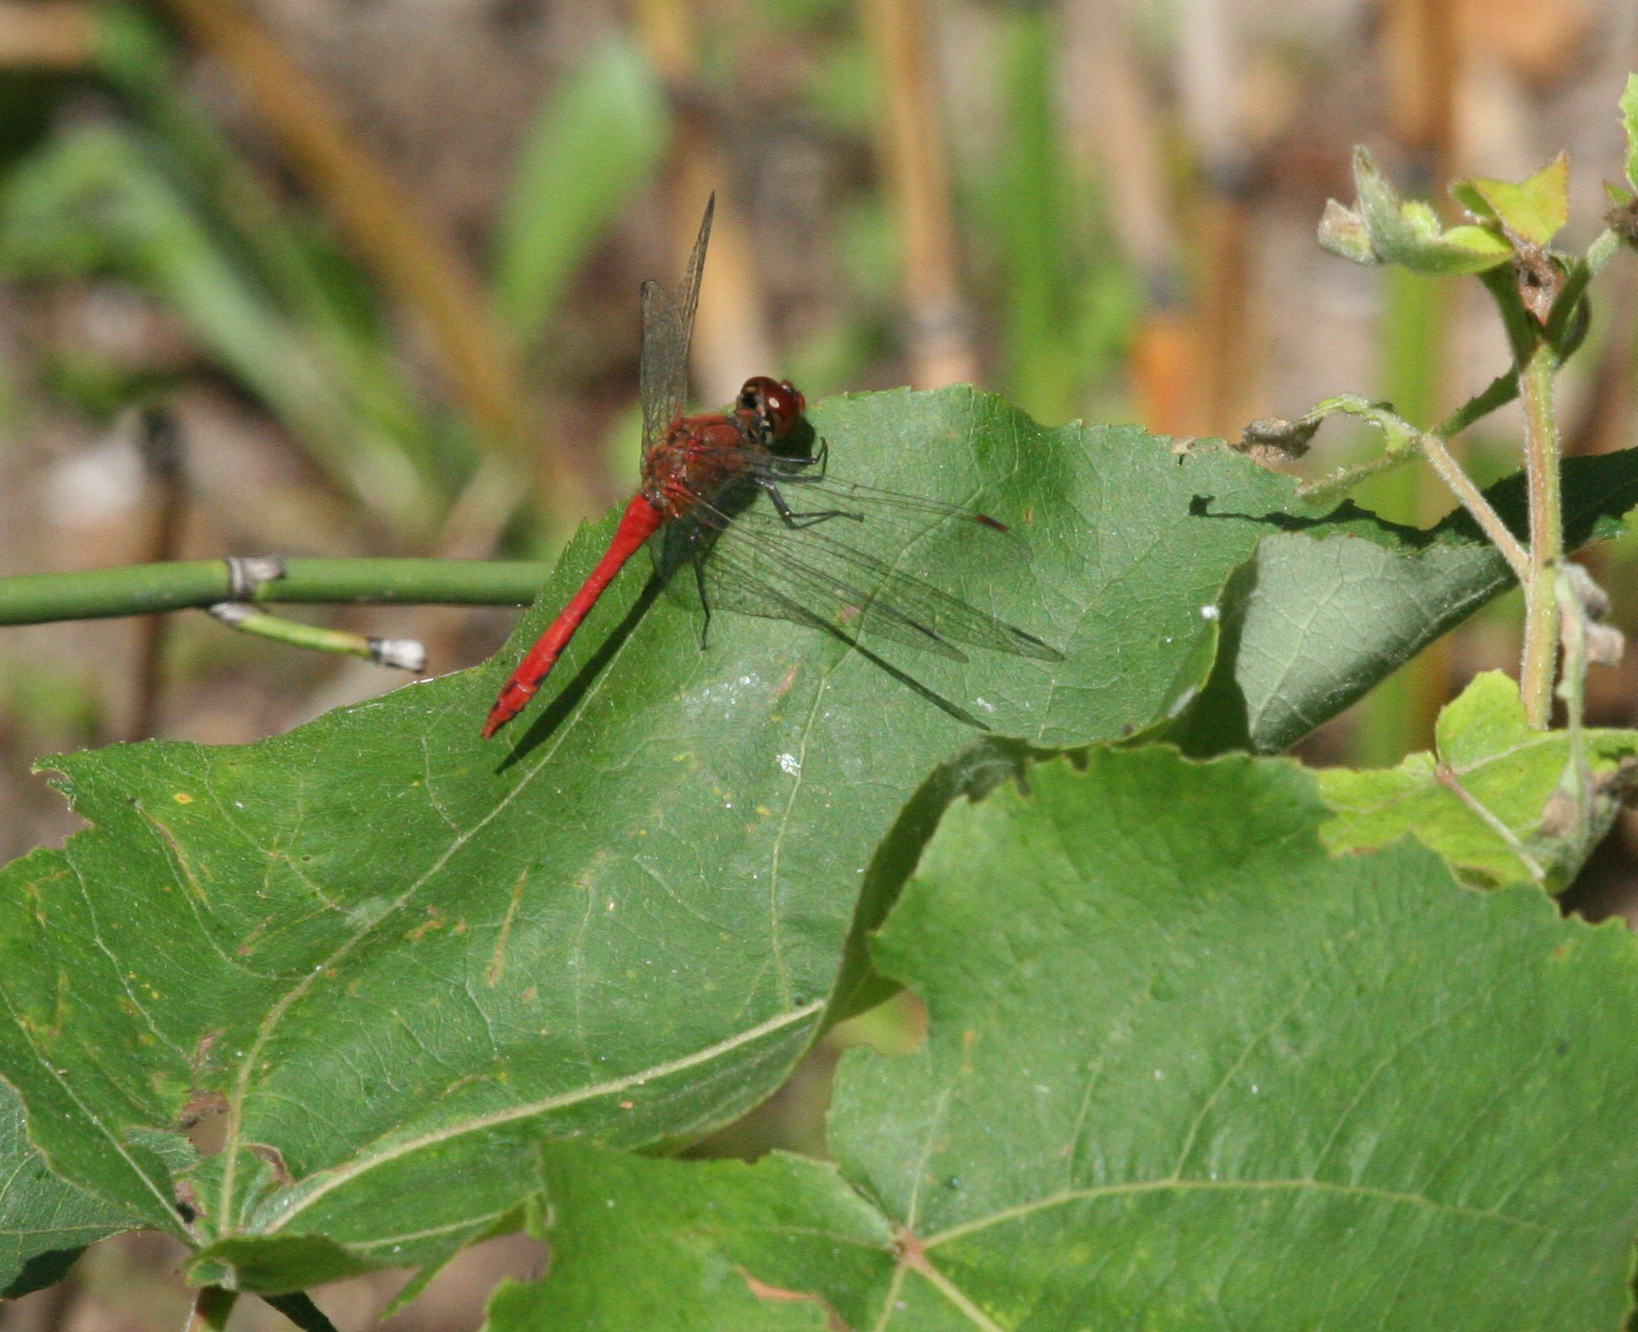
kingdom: Animalia
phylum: Arthropoda
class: Insecta
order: Odonata
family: Libellulidae
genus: Sympetrum
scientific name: Sympetrum sanguineum
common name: Ruddy darter
